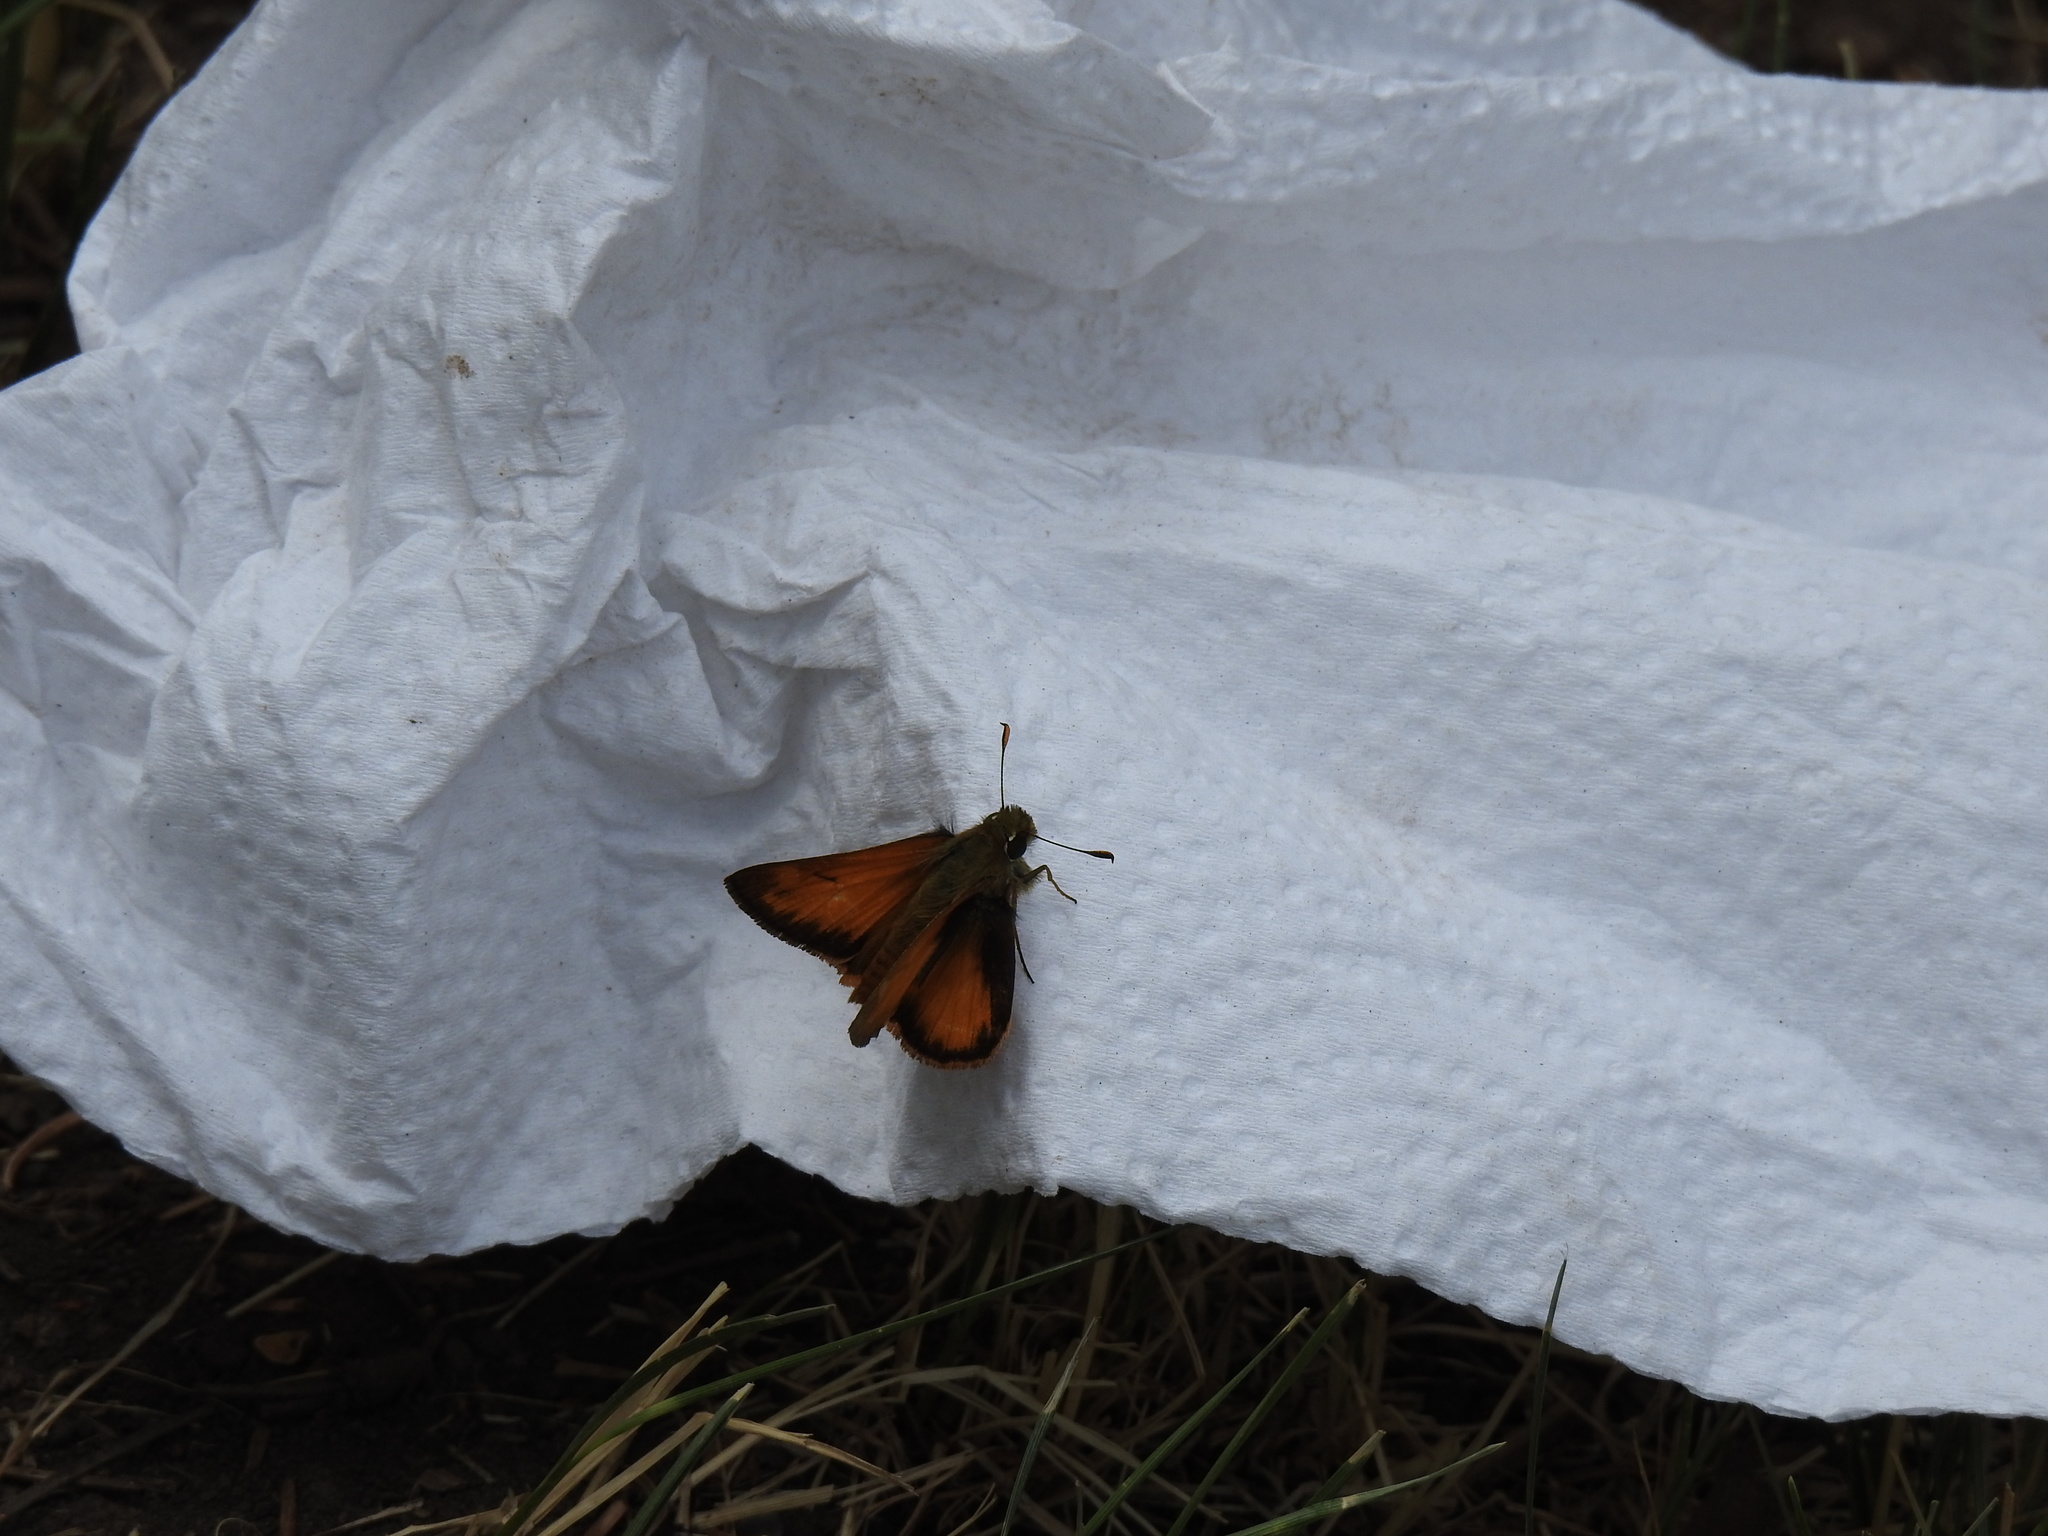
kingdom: Animalia
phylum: Arthropoda
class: Insecta
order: Lepidoptera
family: Hesperiidae
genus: Lon
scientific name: Lon taxiles
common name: Taxiles skipper
